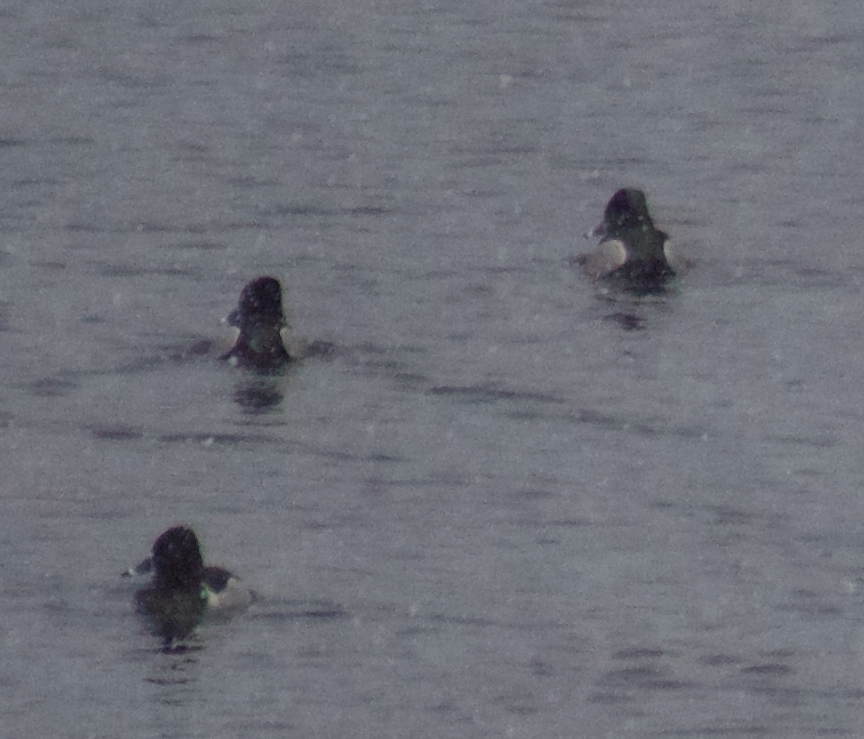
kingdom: Animalia
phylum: Chordata
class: Aves
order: Anseriformes
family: Anatidae
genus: Aythya
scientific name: Aythya collaris
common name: Ring-necked duck
